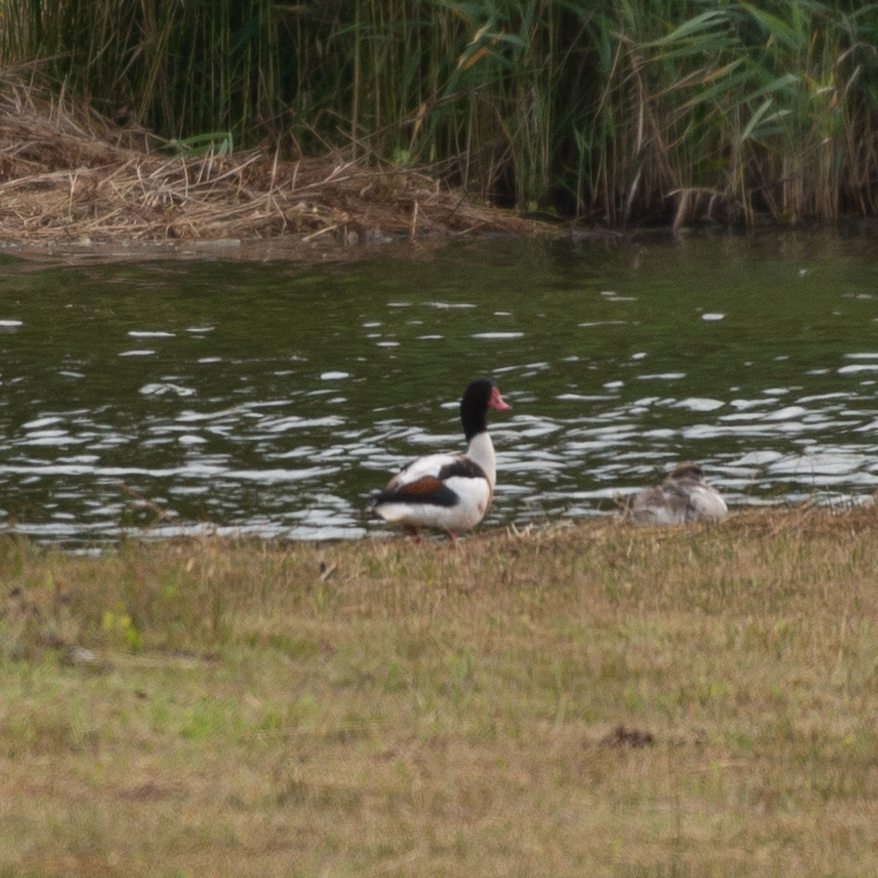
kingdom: Animalia
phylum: Chordata
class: Aves
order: Anseriformes
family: Anatidae
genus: Tadorna
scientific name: Tadorna tadorna
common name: Common shelduck
